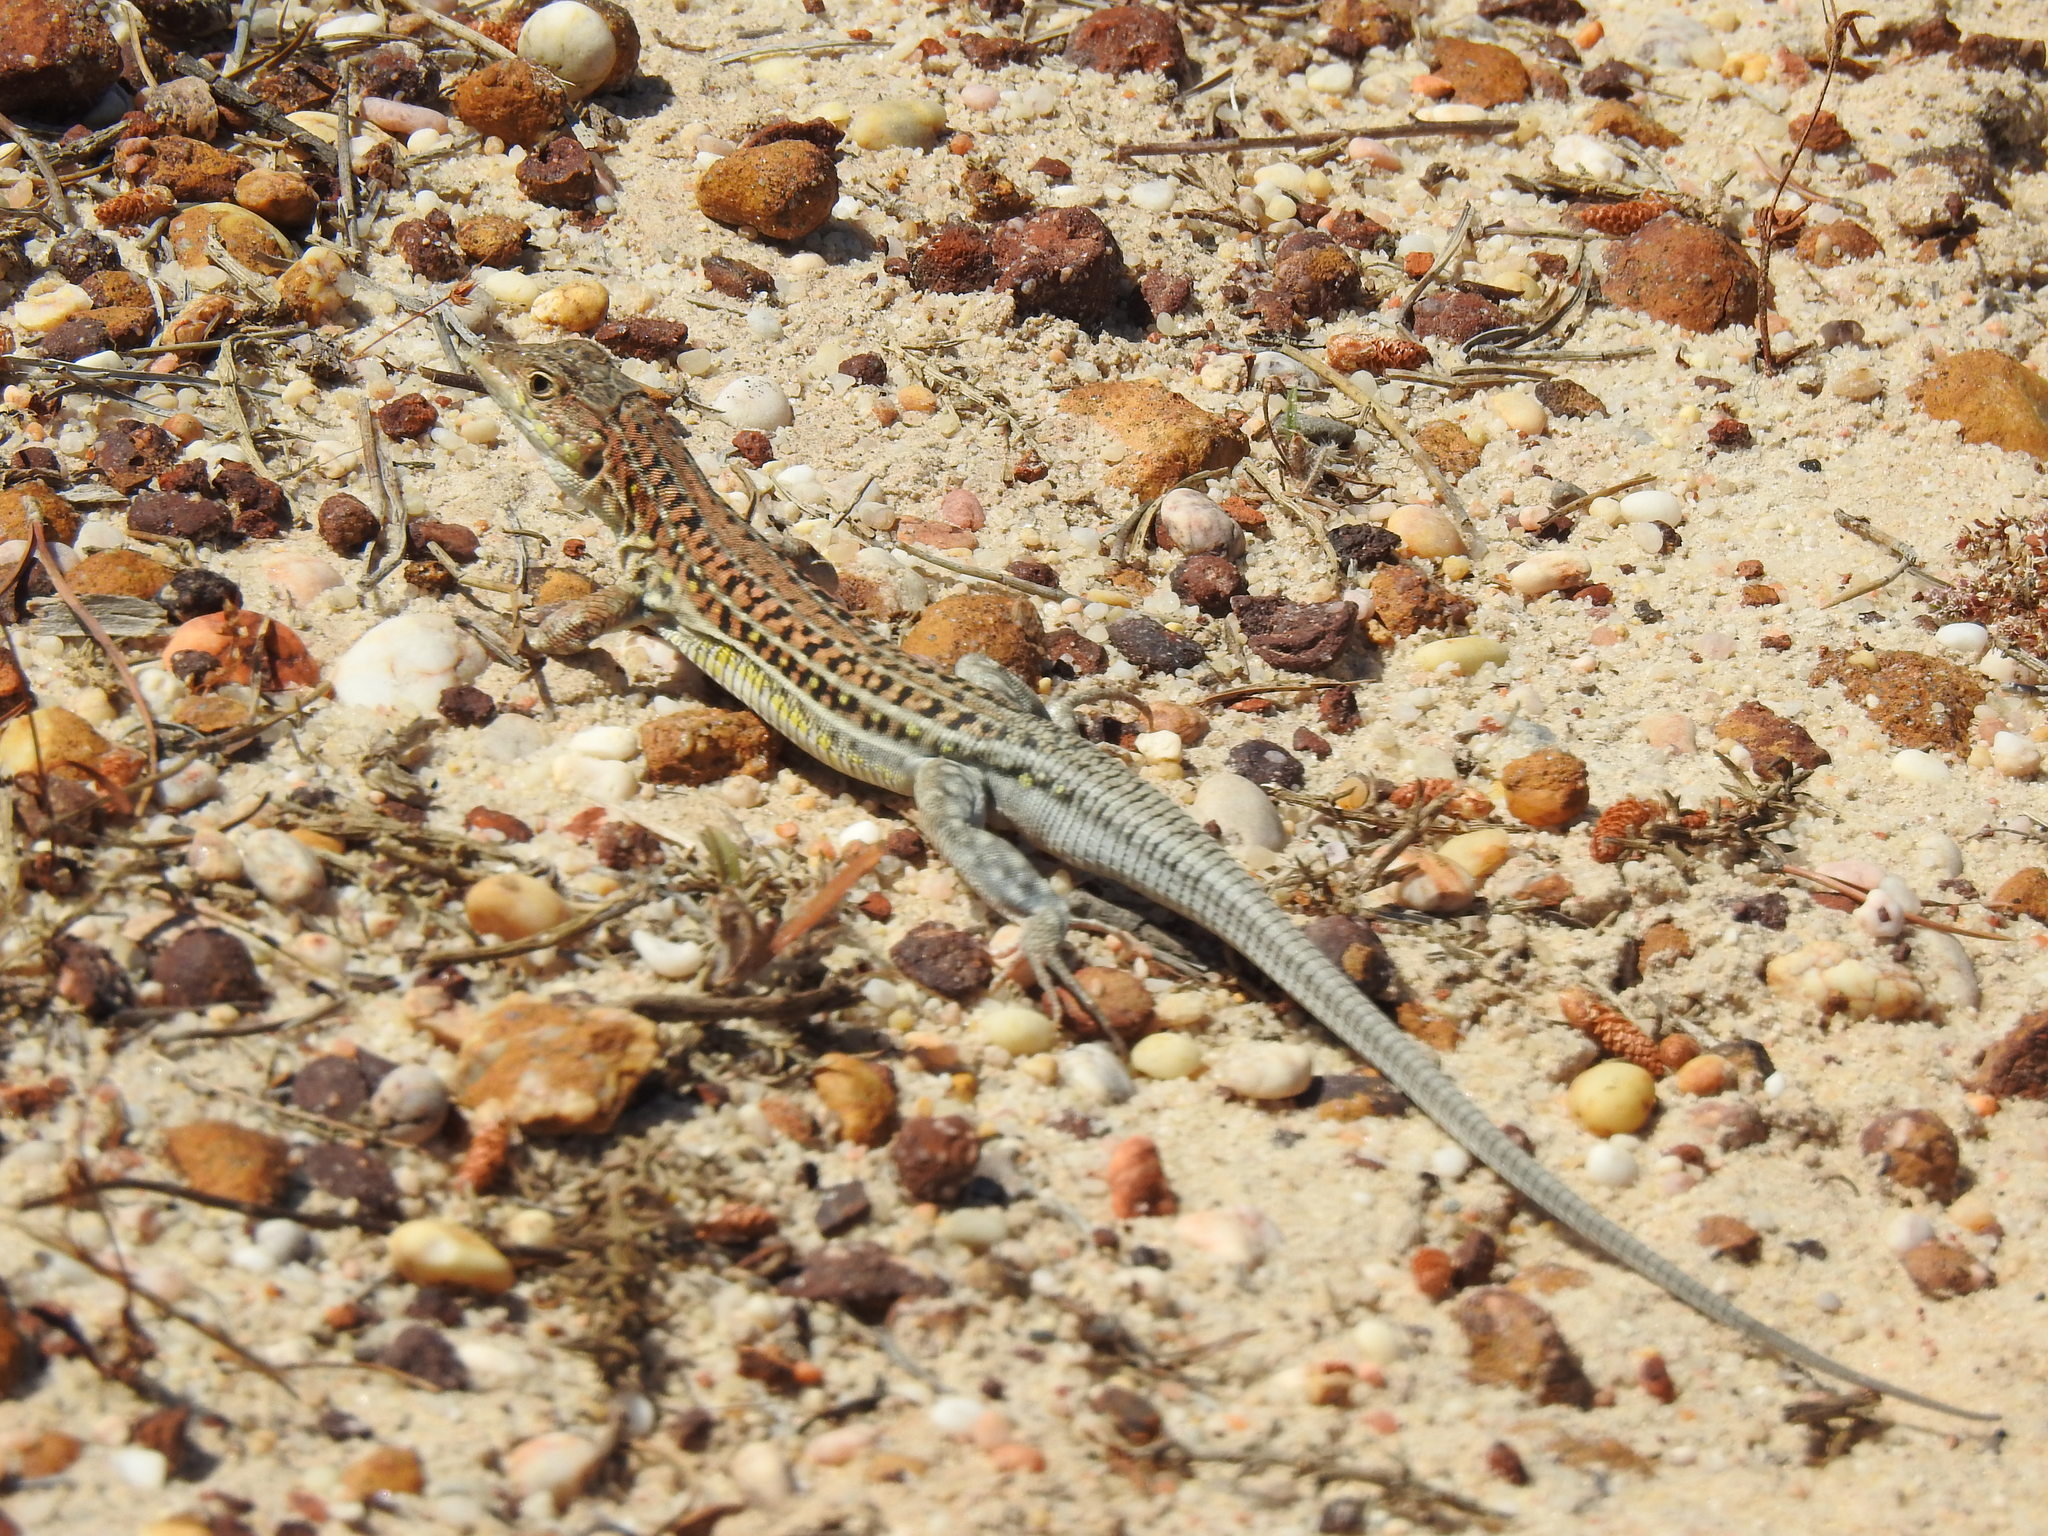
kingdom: Animalia
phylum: Chordata
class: Squamata
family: Lacertidae
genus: Acanthodactylus
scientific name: Acanthodactylus erythrurus
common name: Spiny-footed lizard
